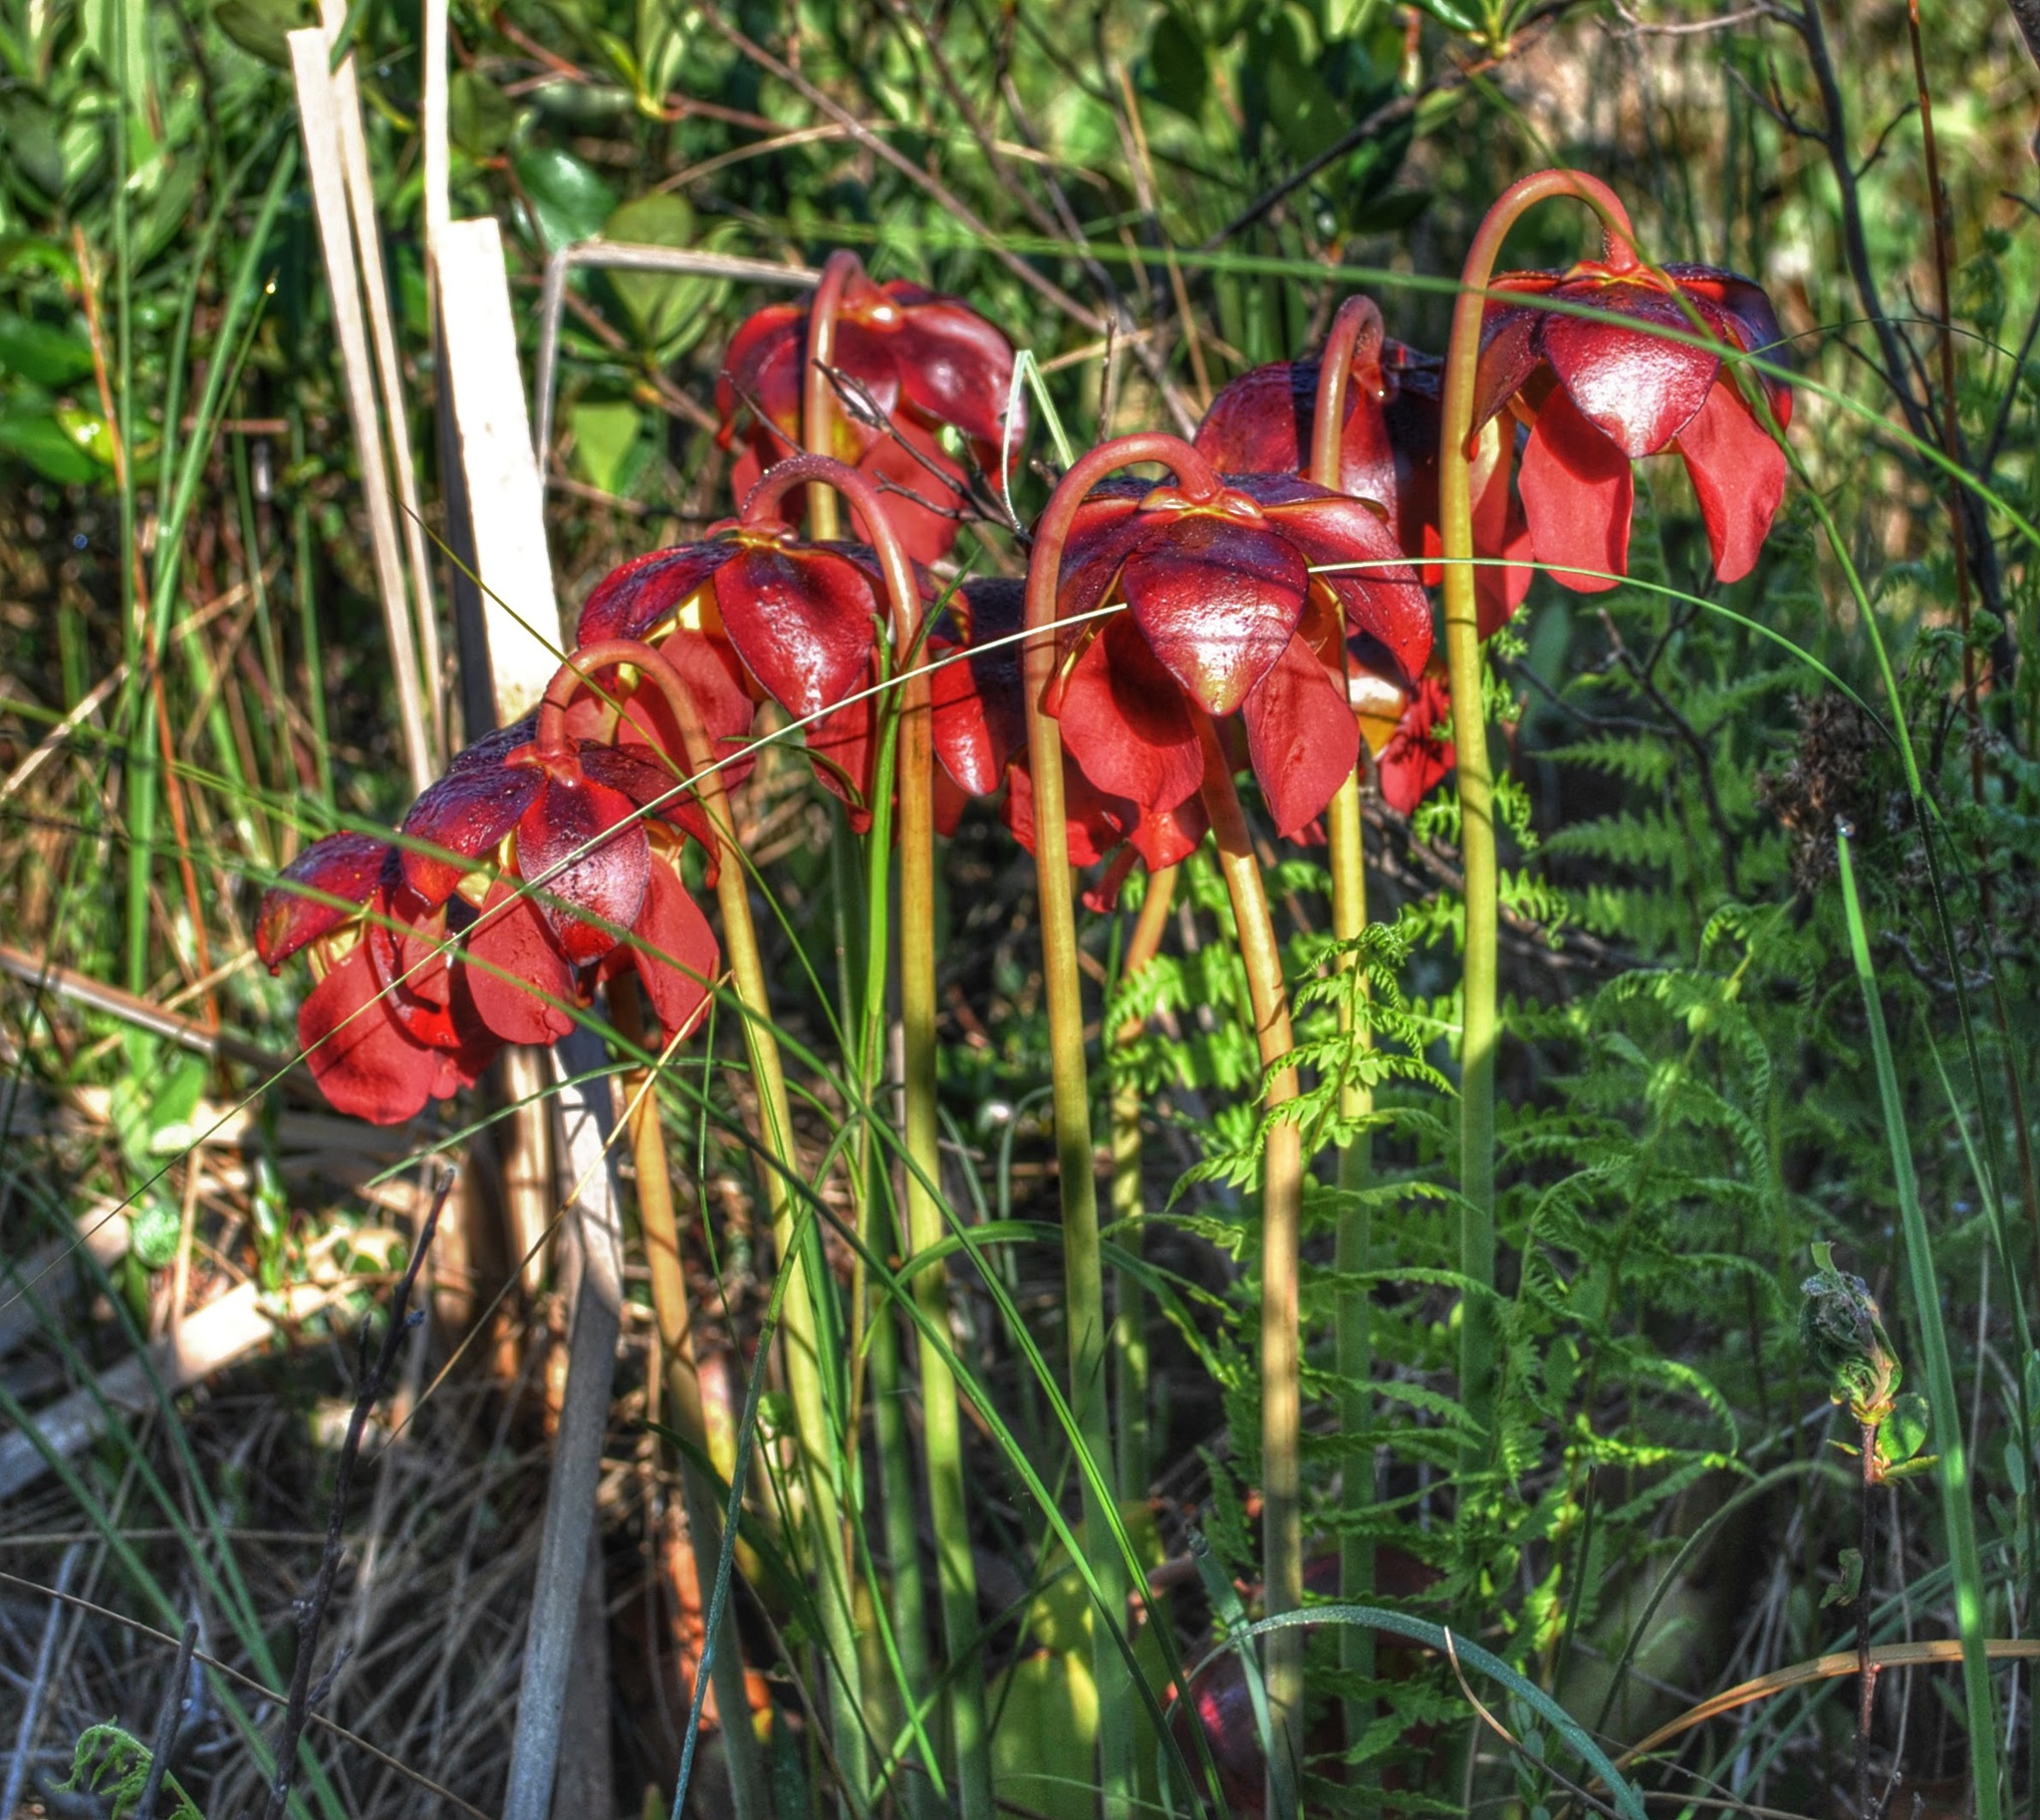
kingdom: Plantae
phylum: Tracheophyta
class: Magnoliopsida
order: Ericales
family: Sarraceniaceae
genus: Sarracenia
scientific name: Sarracenia purpurea
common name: Pitcherplant
